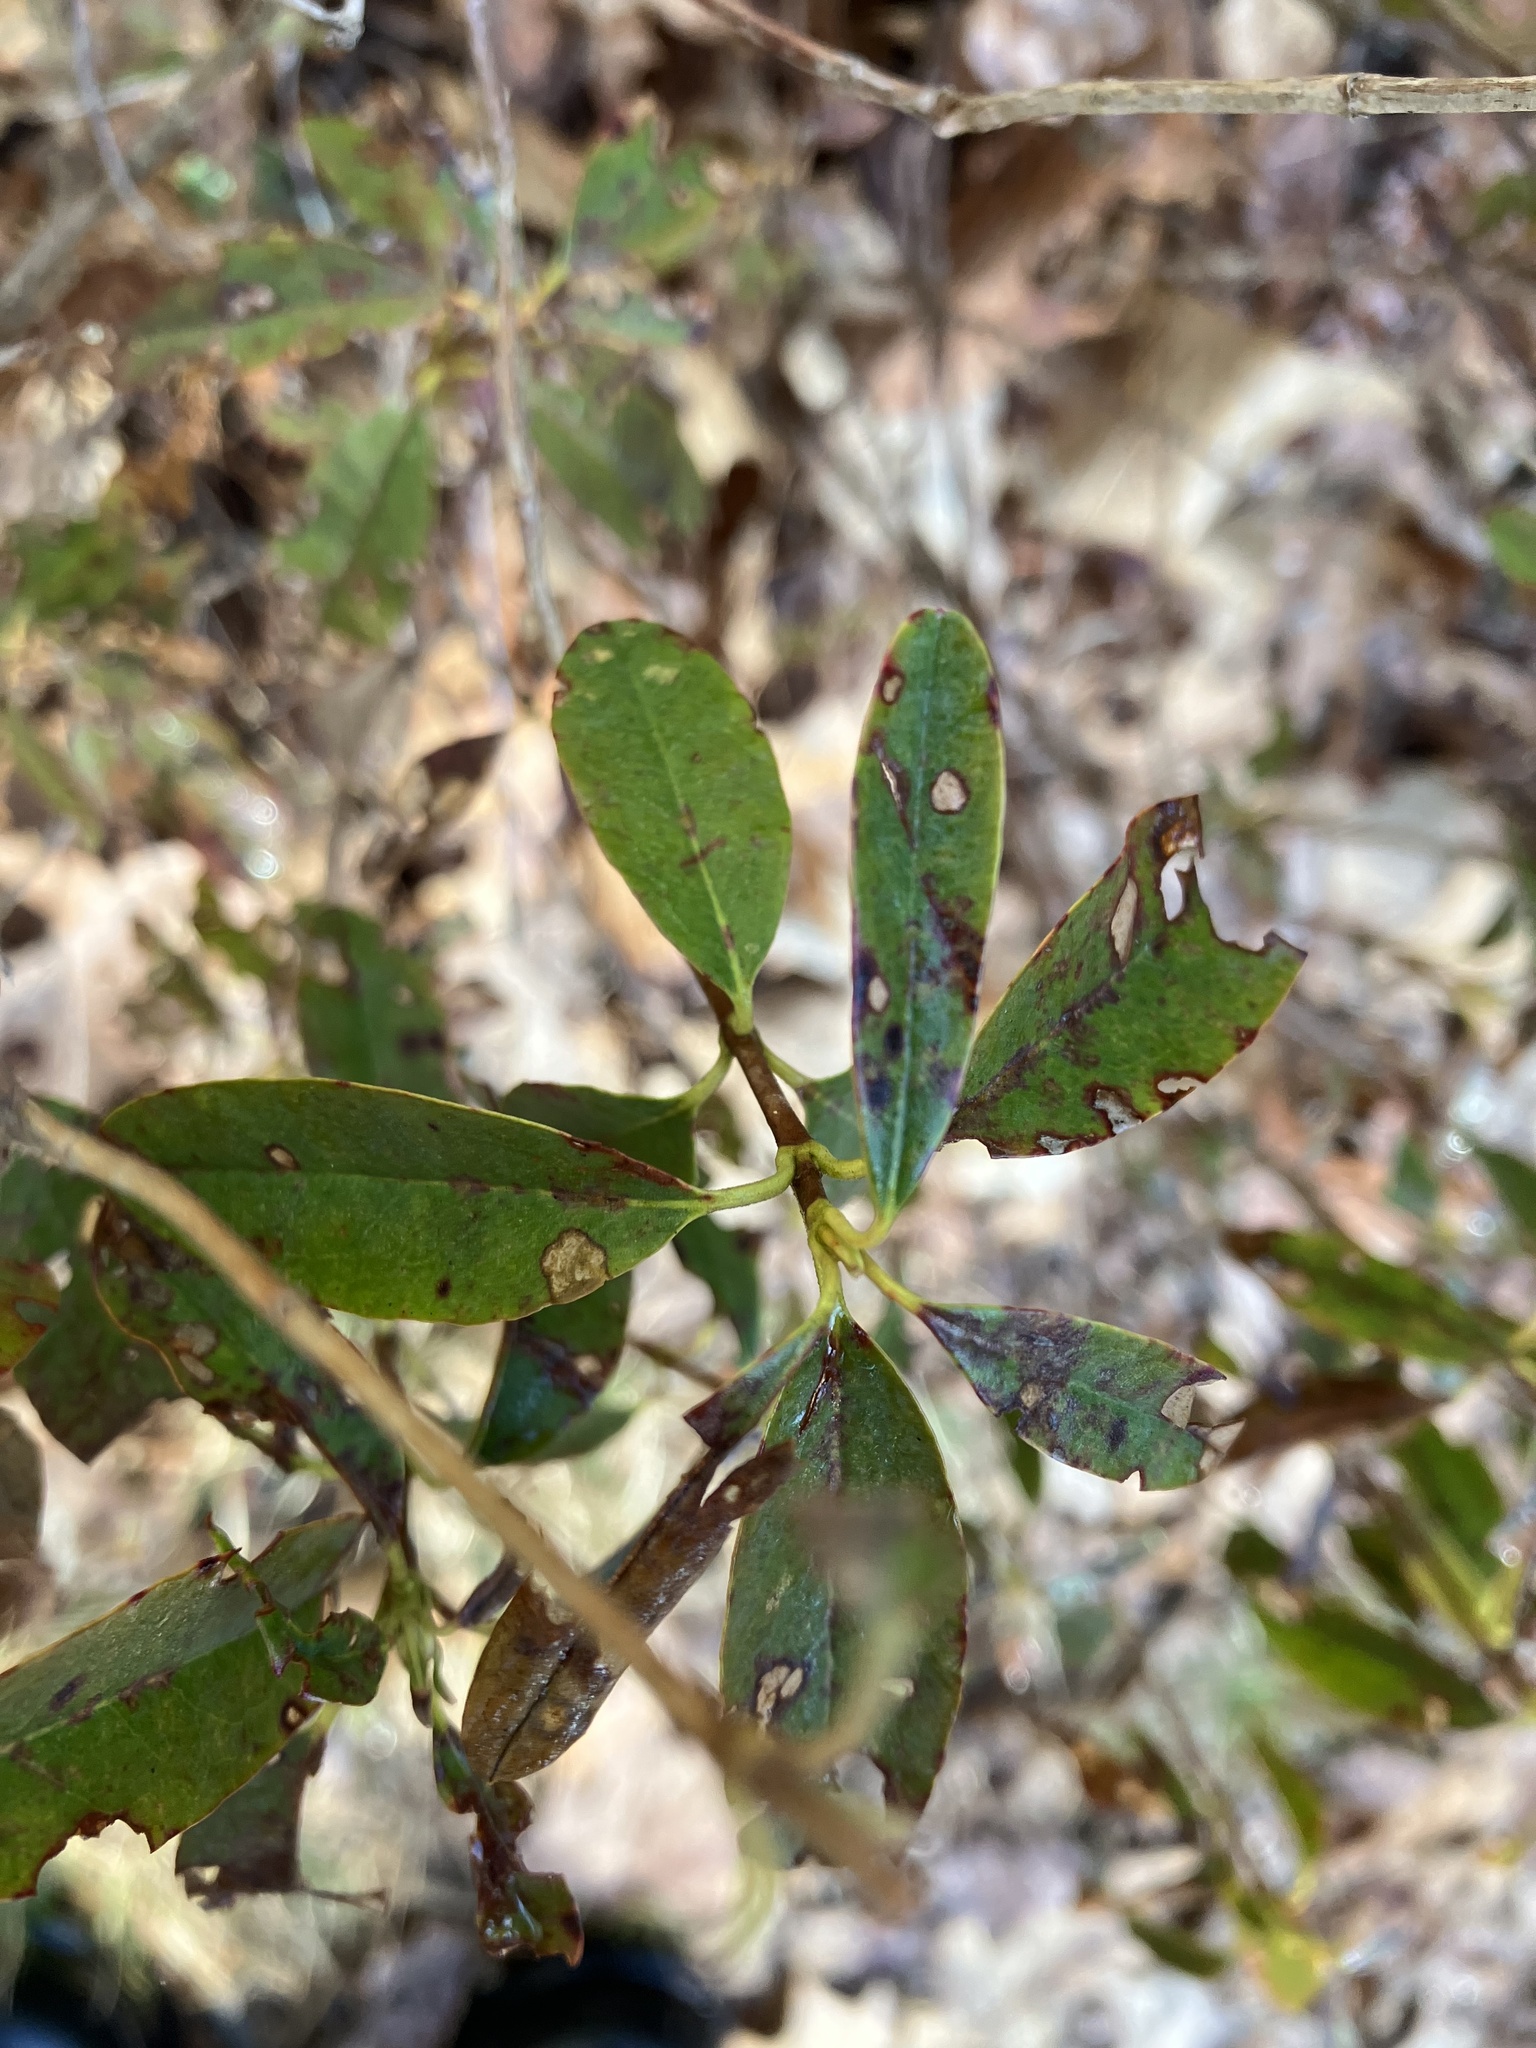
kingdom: Plantae
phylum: Tracheophyta
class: Magnoliopsida
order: Ericales
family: Ericaceae
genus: Kalmia
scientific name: Kalmia angustifolia
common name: Sheep-laurel
